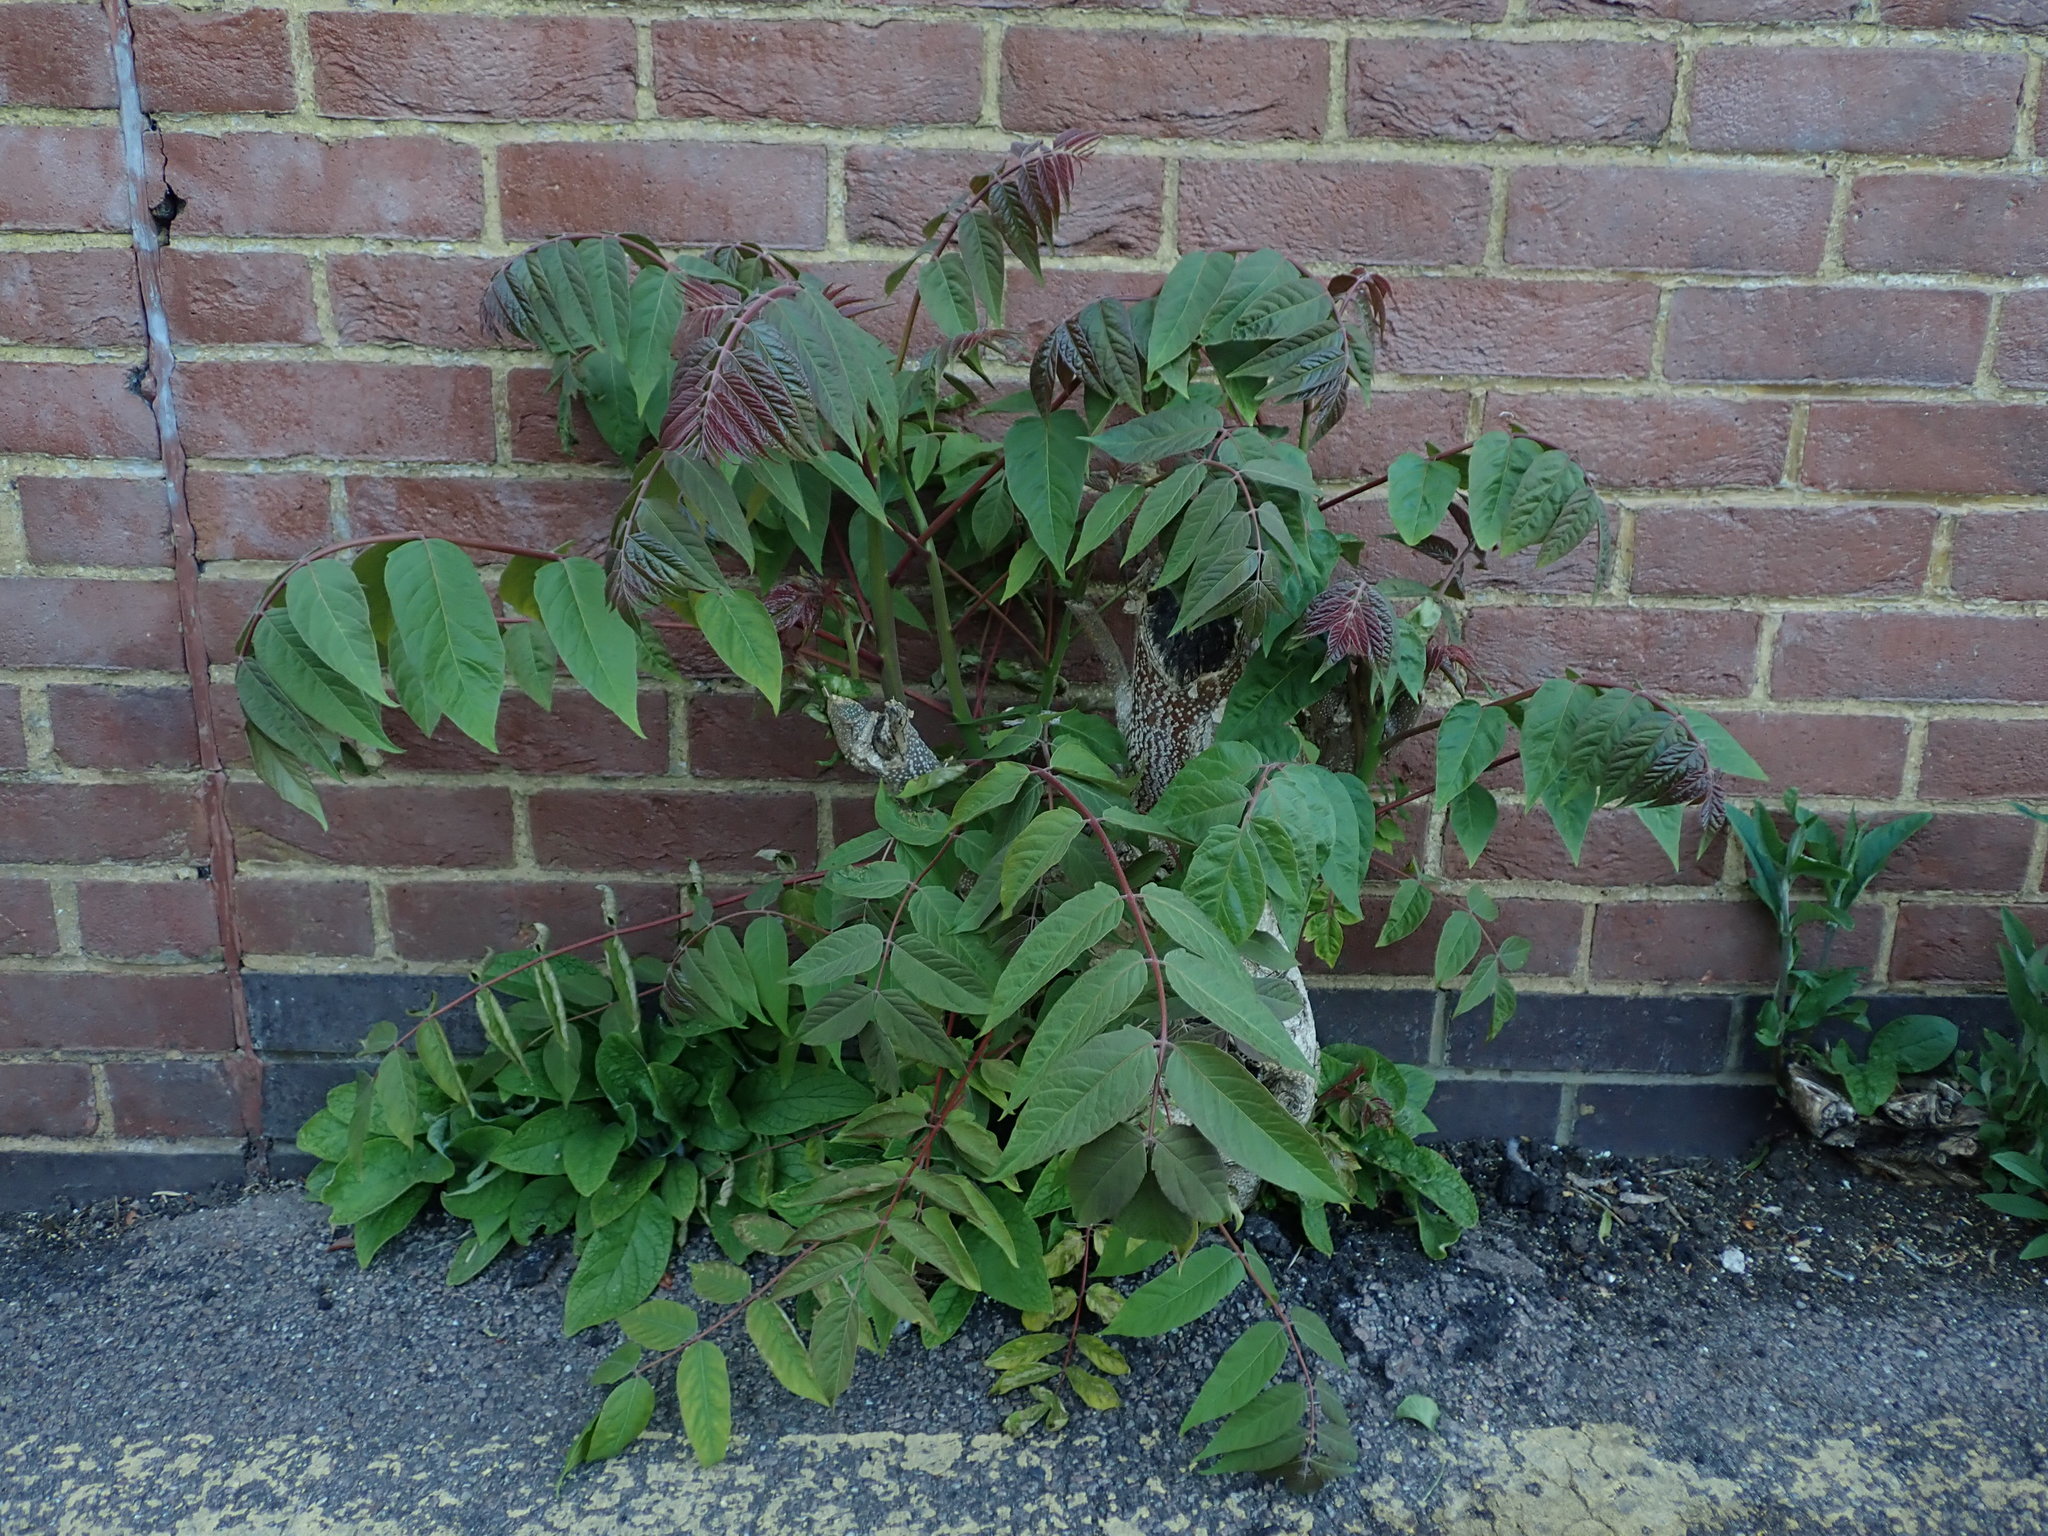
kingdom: Plantae
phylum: Tracheophyta
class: Magnoliopsida
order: Sapindales
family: Simaroubaceae
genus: Ailanthus
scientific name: Ailanthus altissima
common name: Tree-of-heaven
